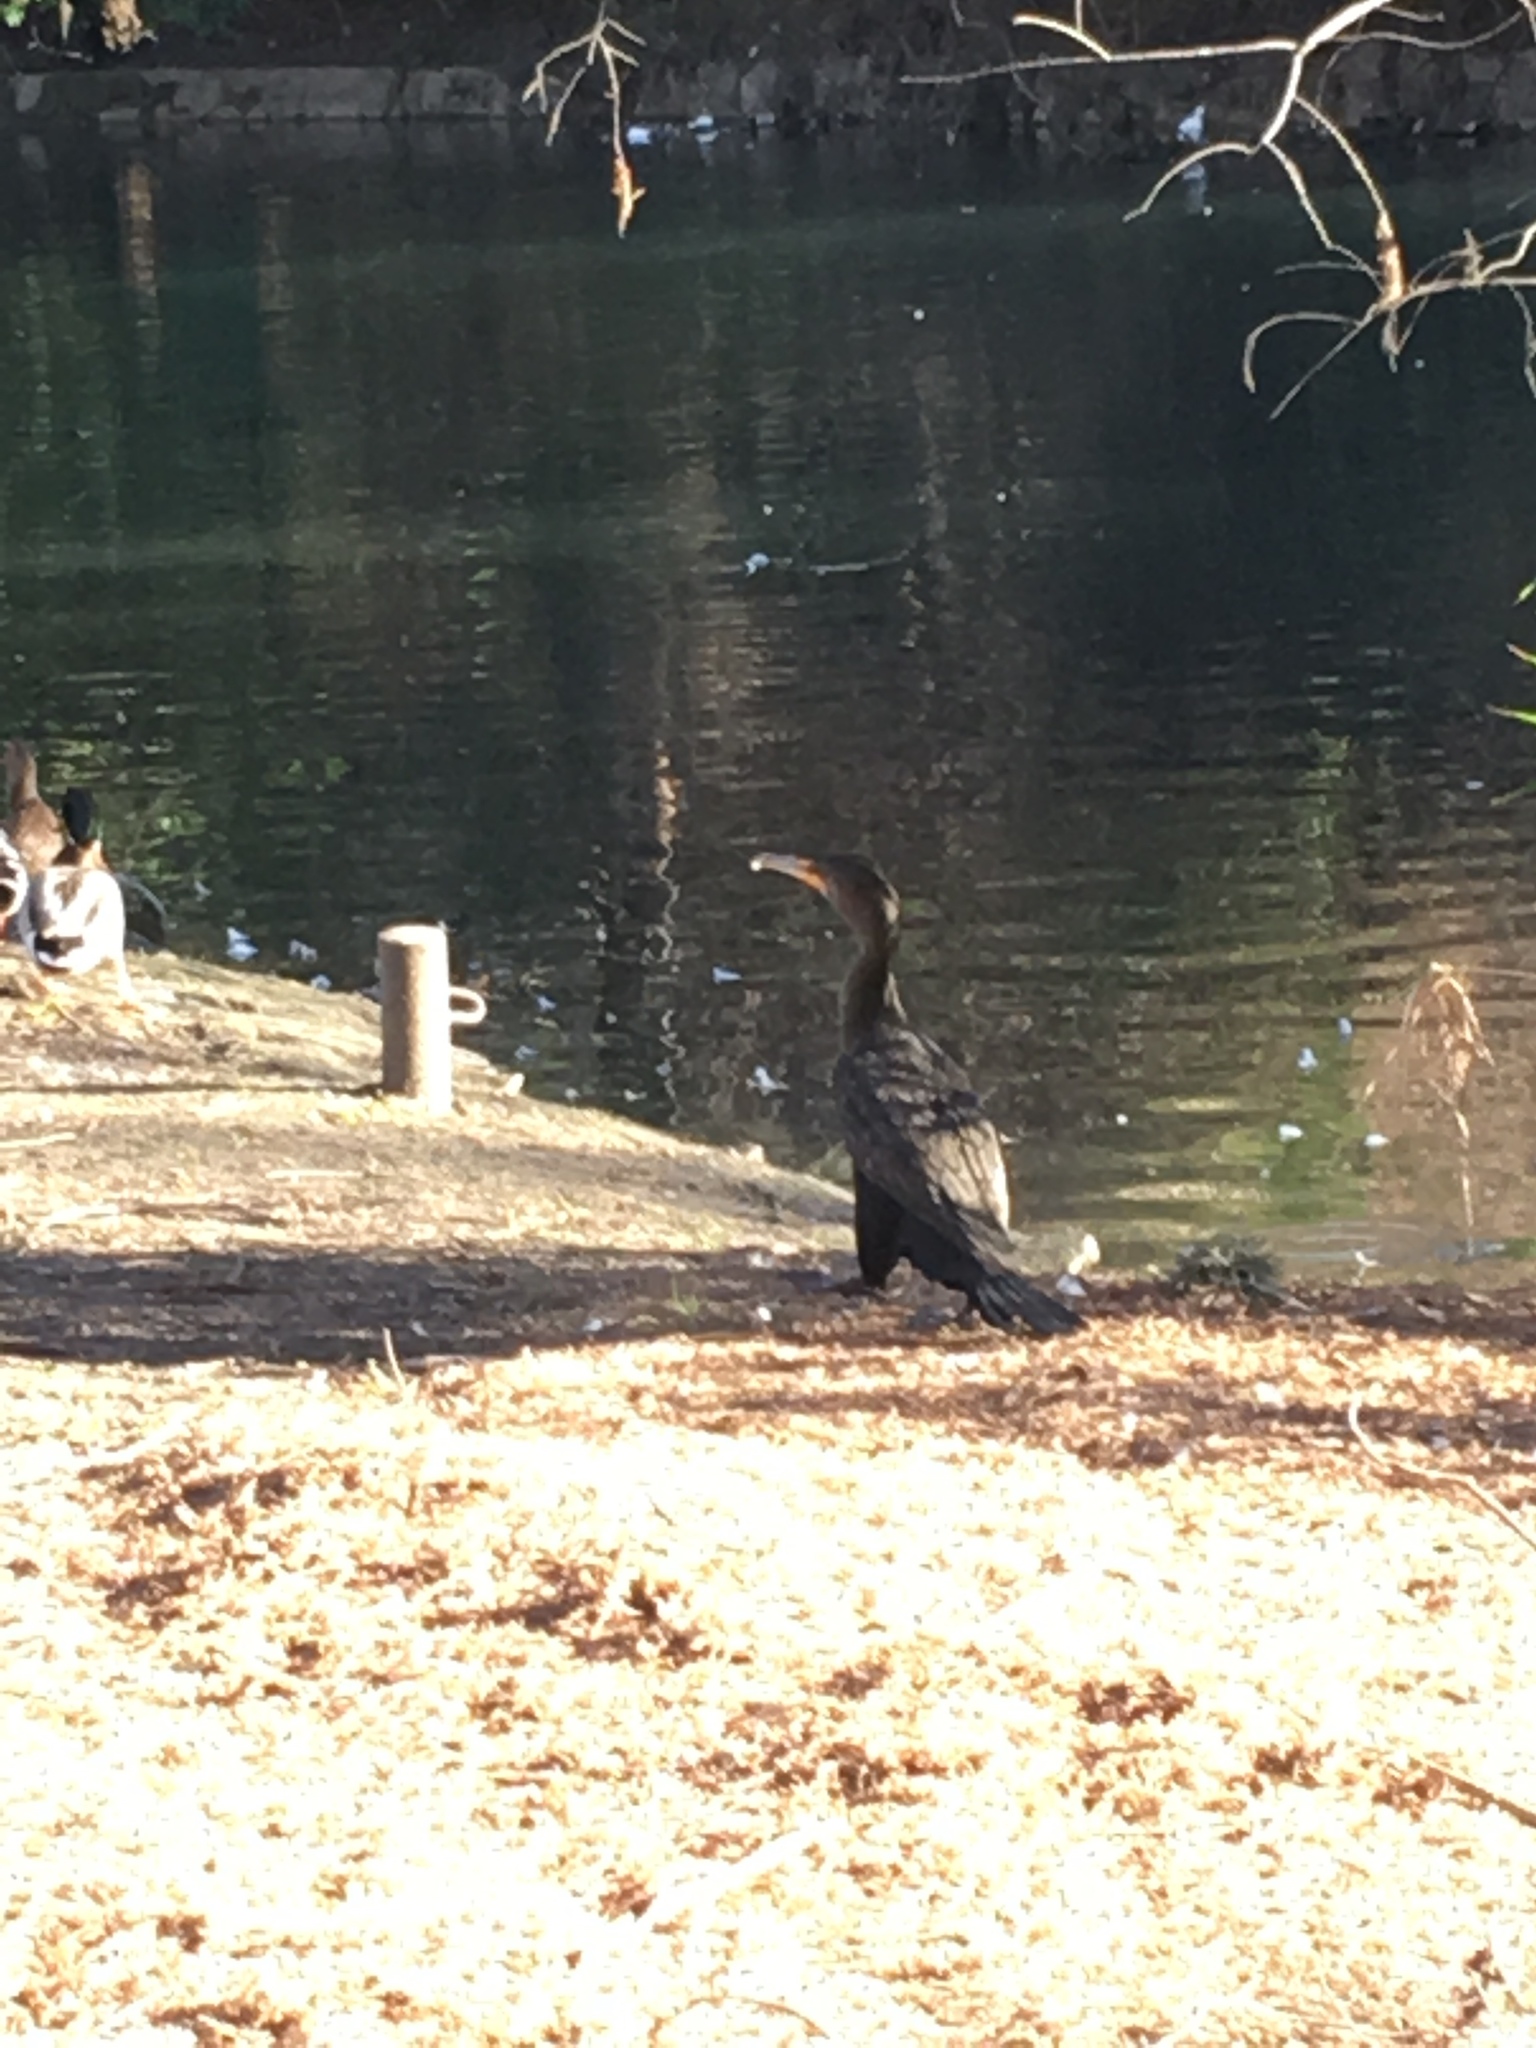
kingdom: Animalia
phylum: Chordata
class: Aves
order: Suliformes
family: Phalacrocoracidae
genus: Phalacrocorax
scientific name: Phalacrocorax auritus
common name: Double-crested cormorant
